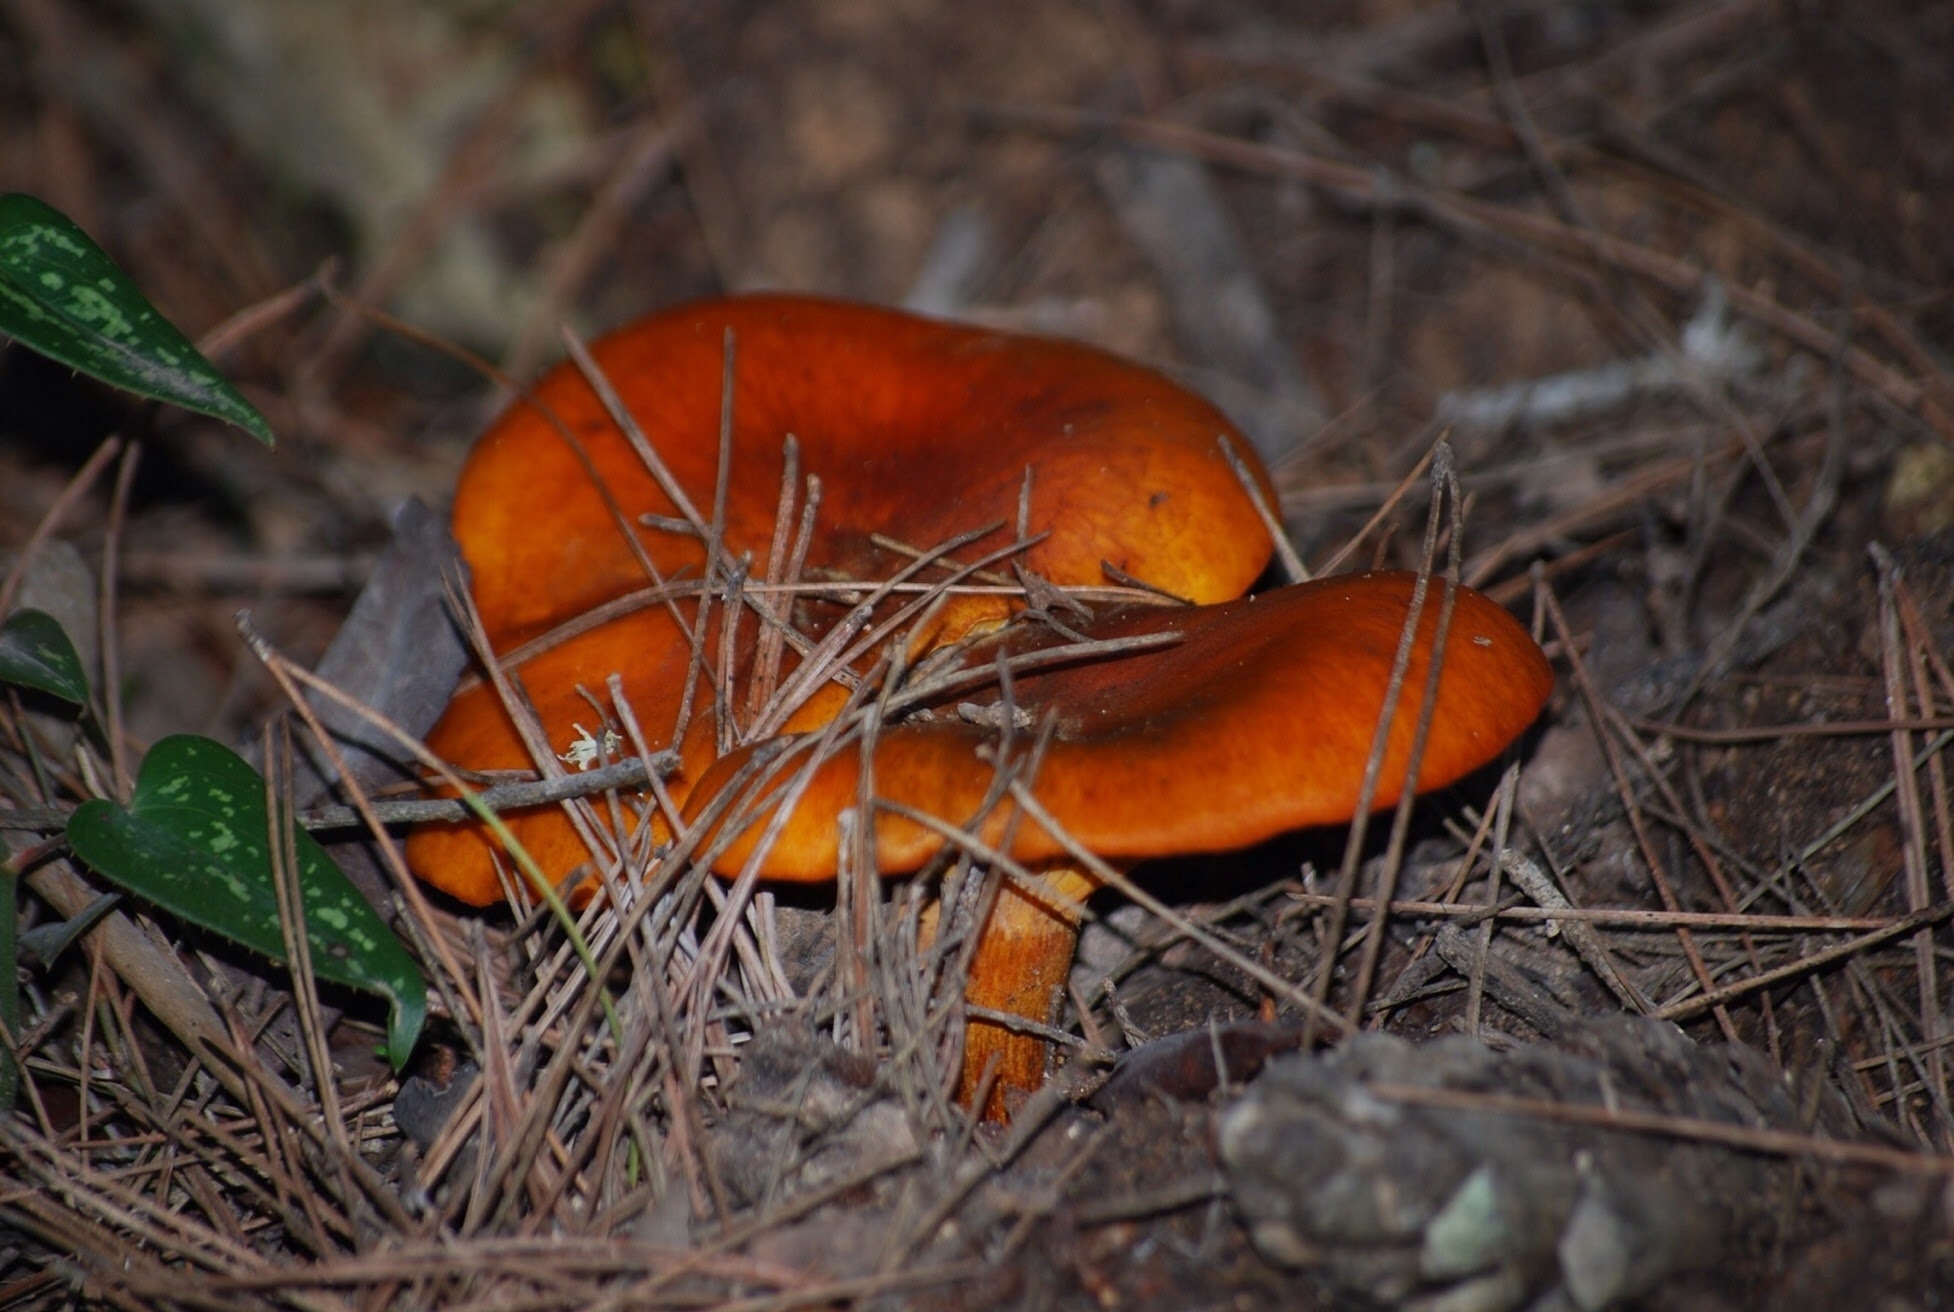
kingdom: Fungi
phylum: Basidiomycota
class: Agaricomycetes
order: Agaricales
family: Omphalotaceae
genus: Omphalotus
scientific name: Omphalotus olearius
